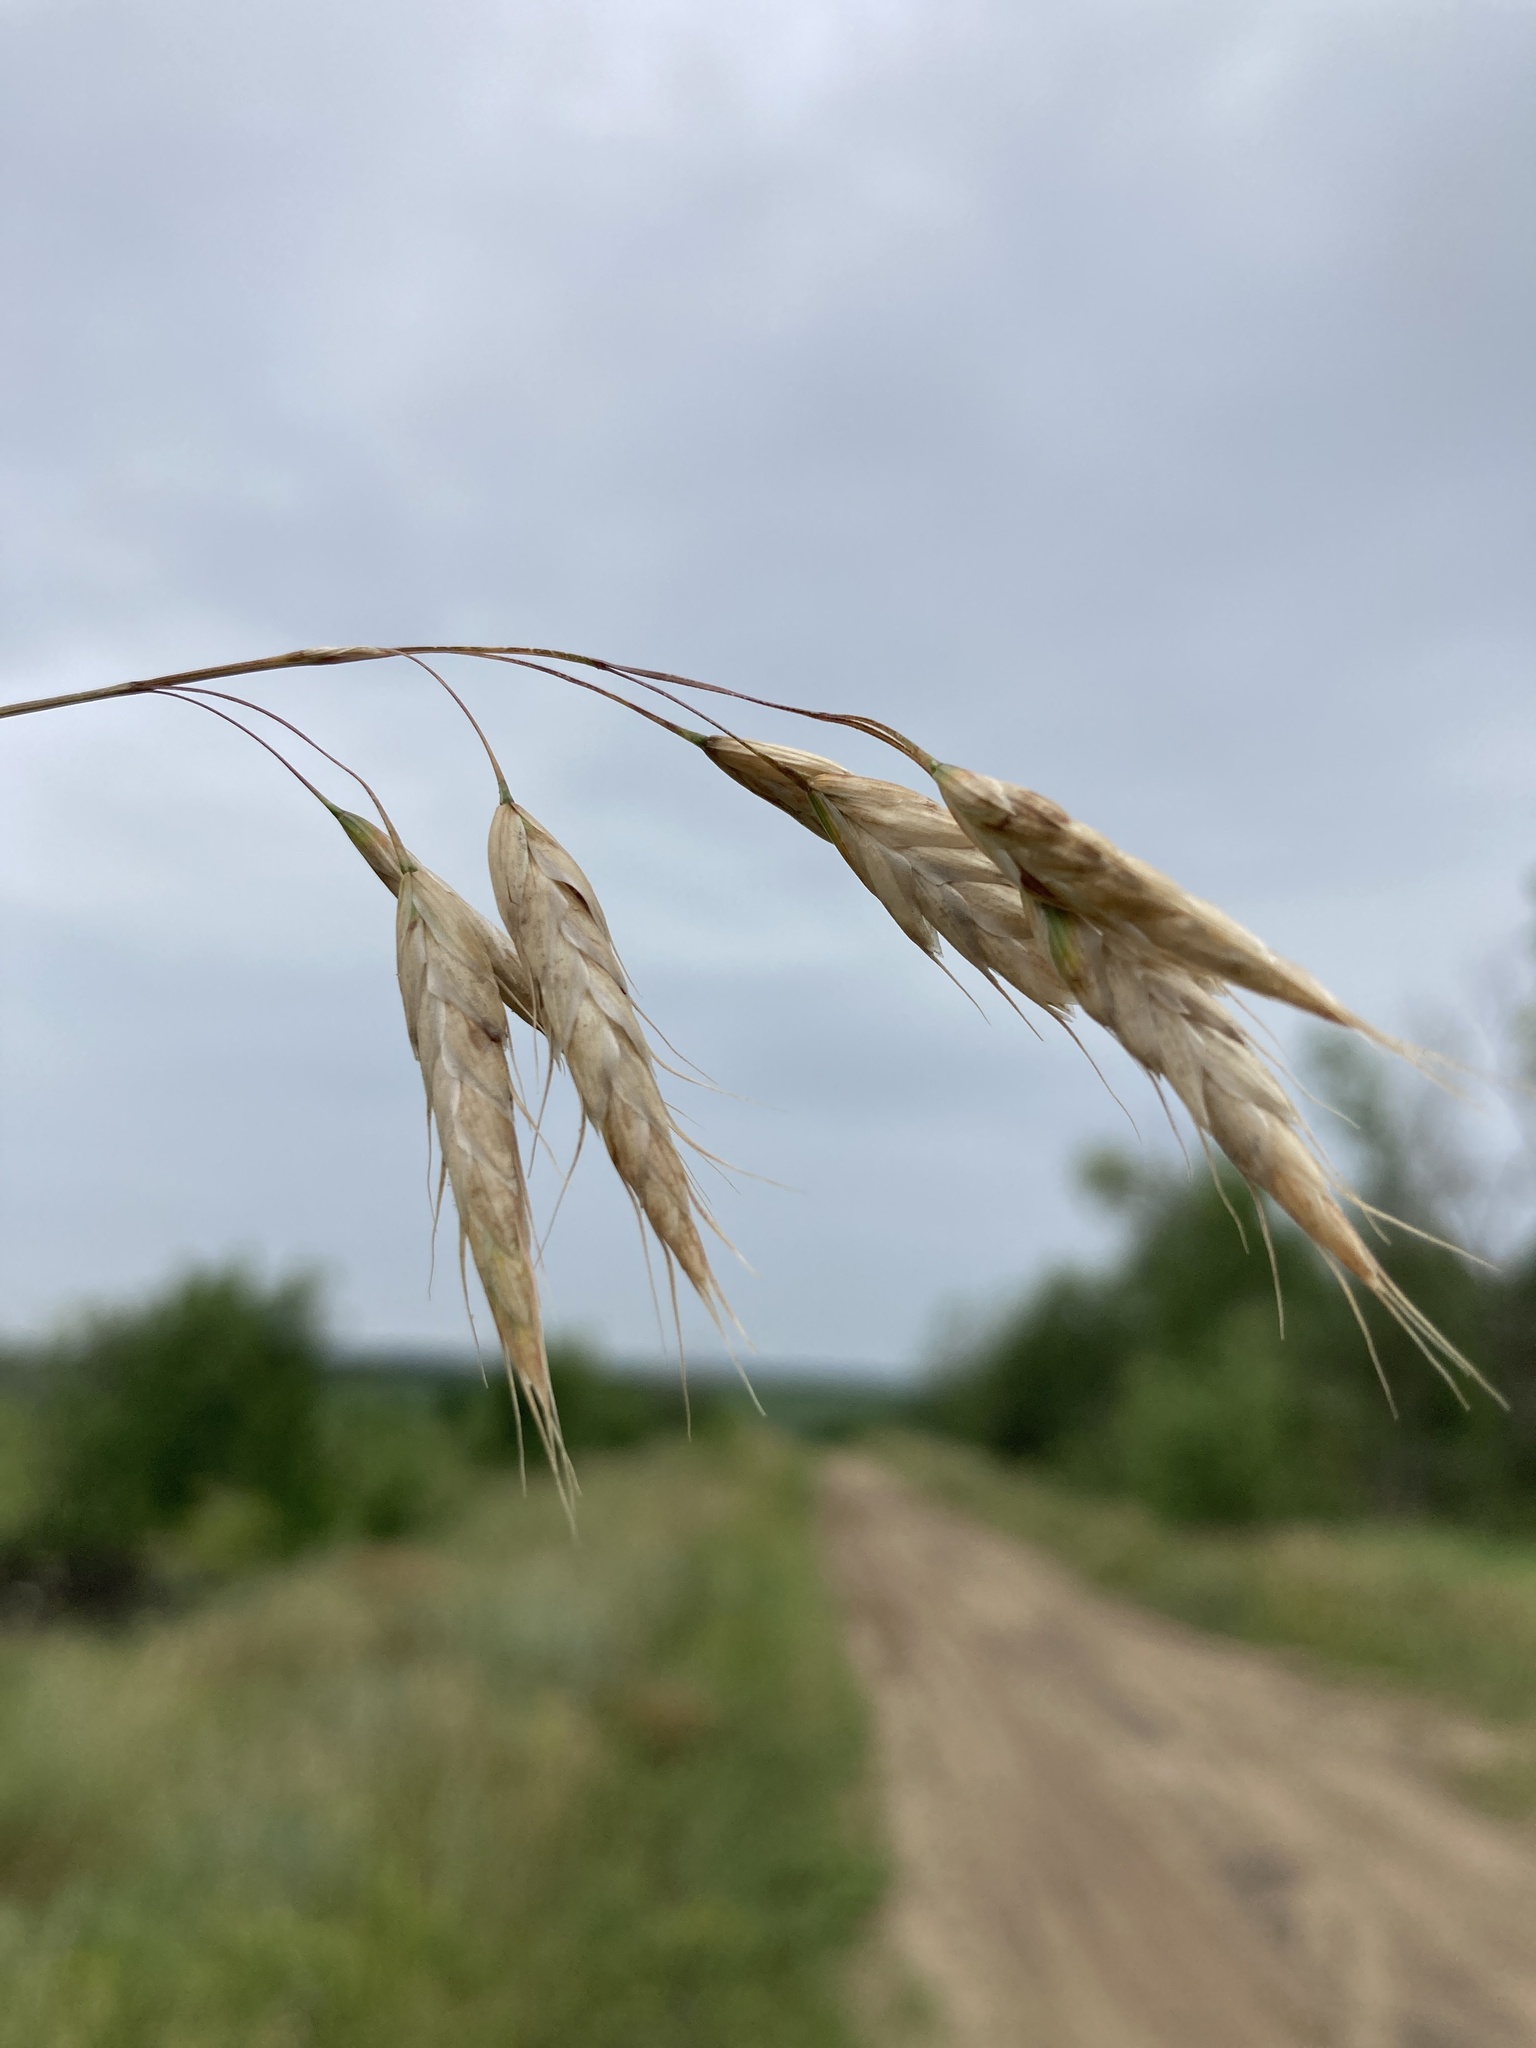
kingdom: Plantae
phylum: Tracheophyta
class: Liliopsida
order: Poales
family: Poaceae
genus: Bromus
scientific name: Bromus squarrosus
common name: Corn brome
